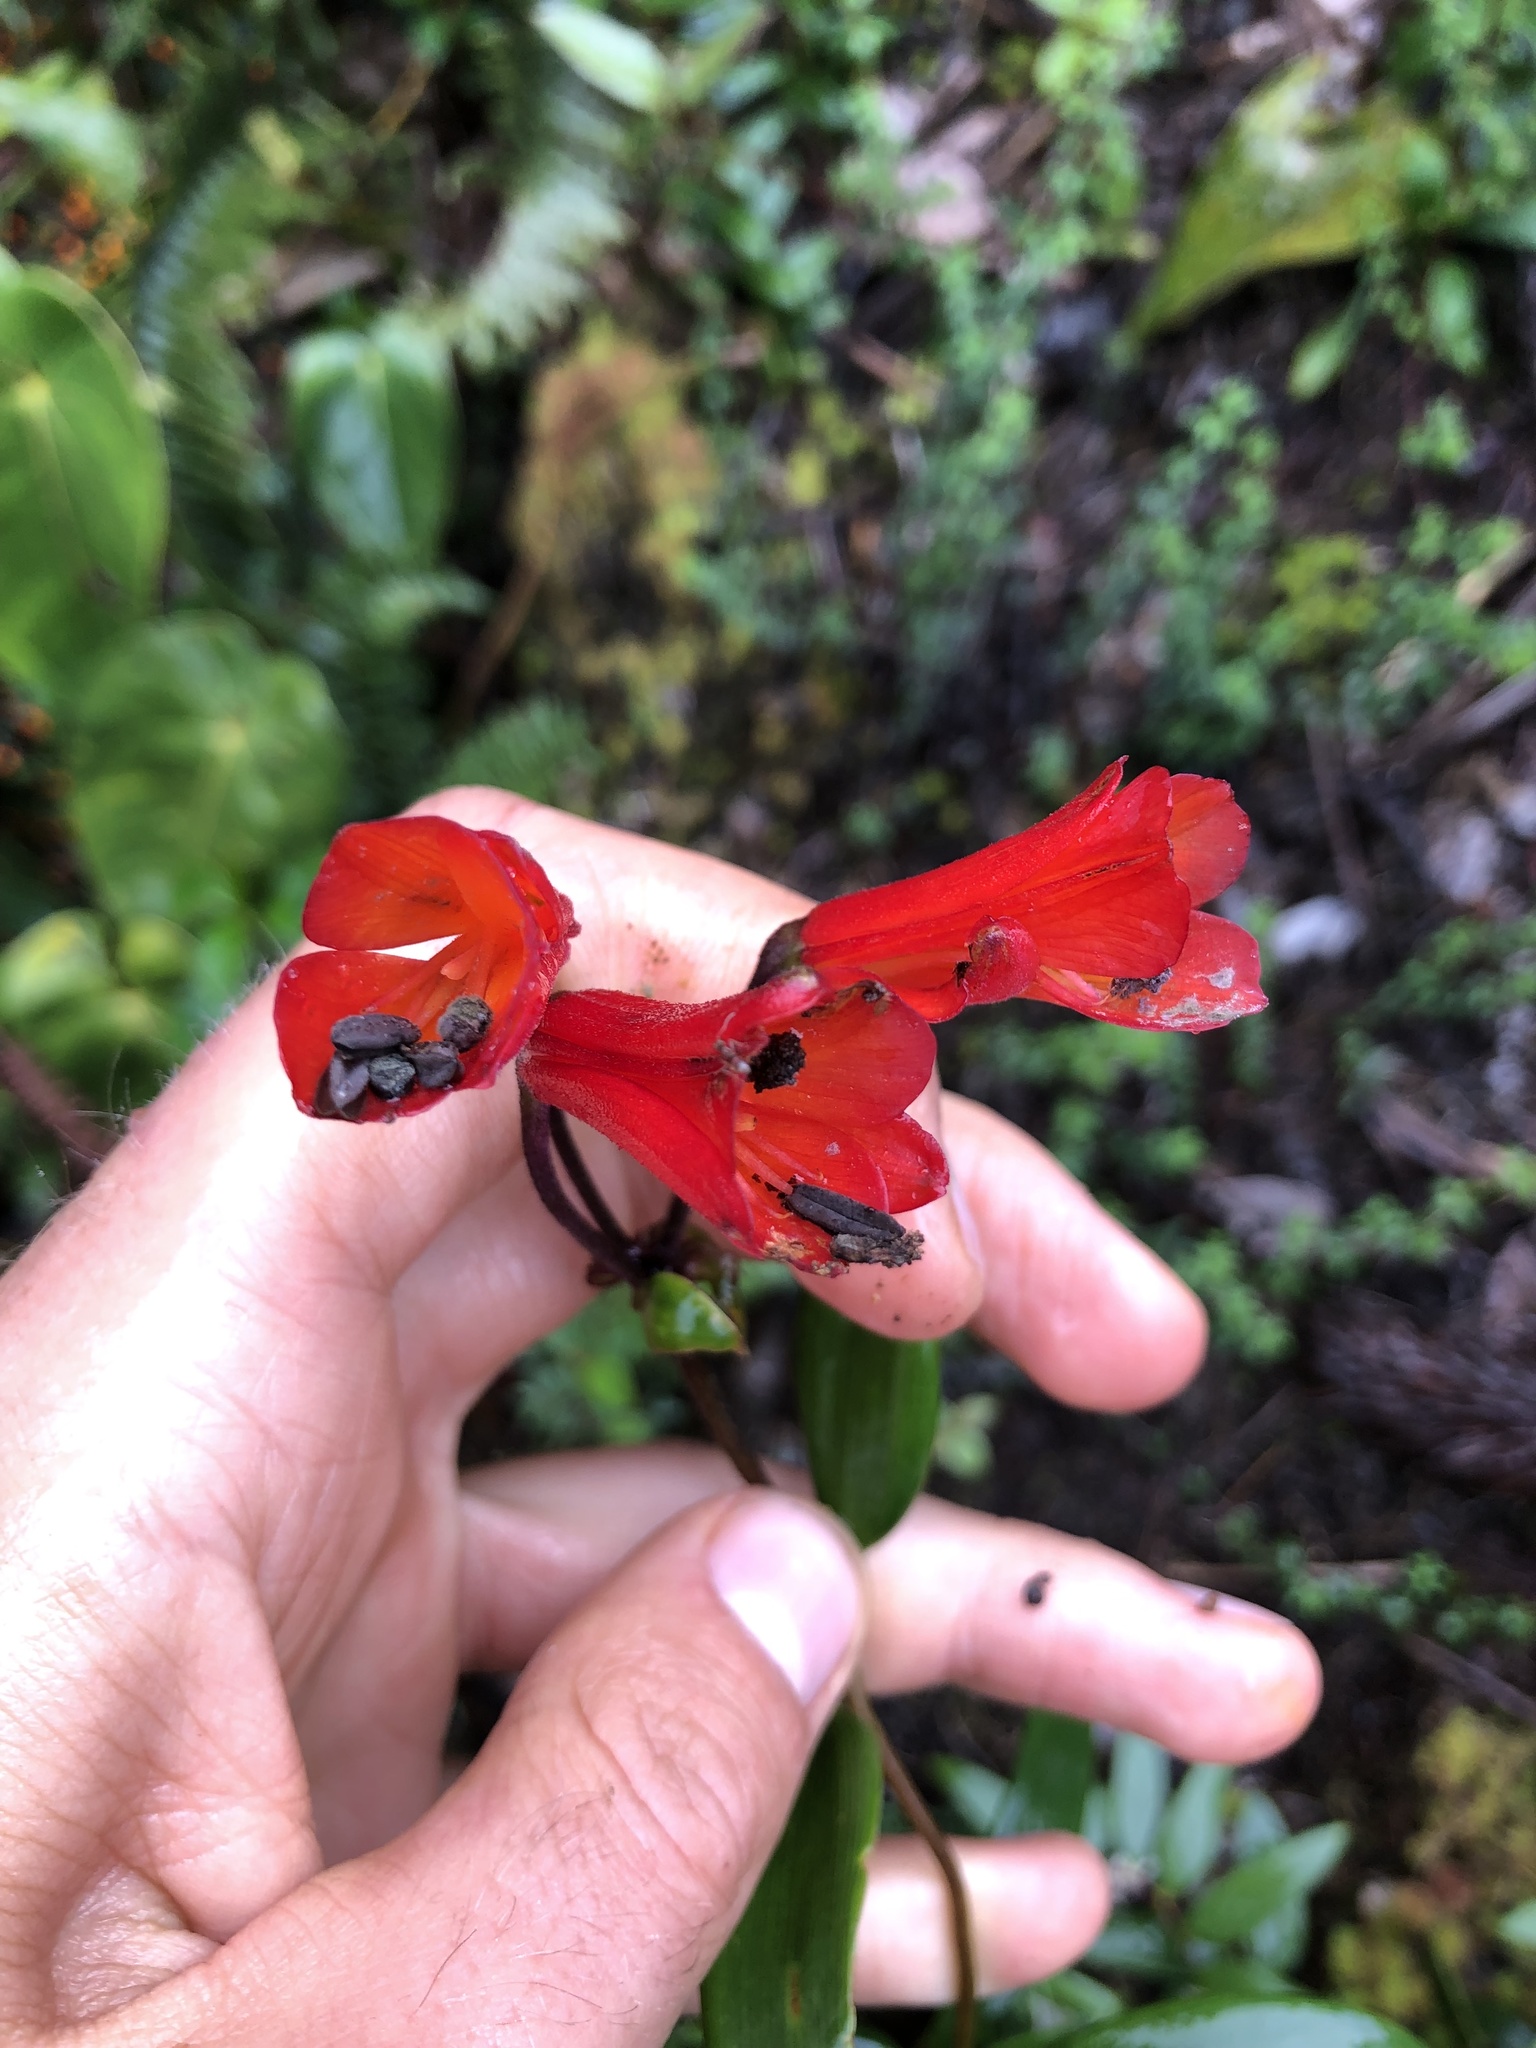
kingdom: Plantae
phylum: Tracheophyta
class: Liliopsida
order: Liliales
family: Alstroemeriaceae
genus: Bomarea
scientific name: Bomarea setacea
